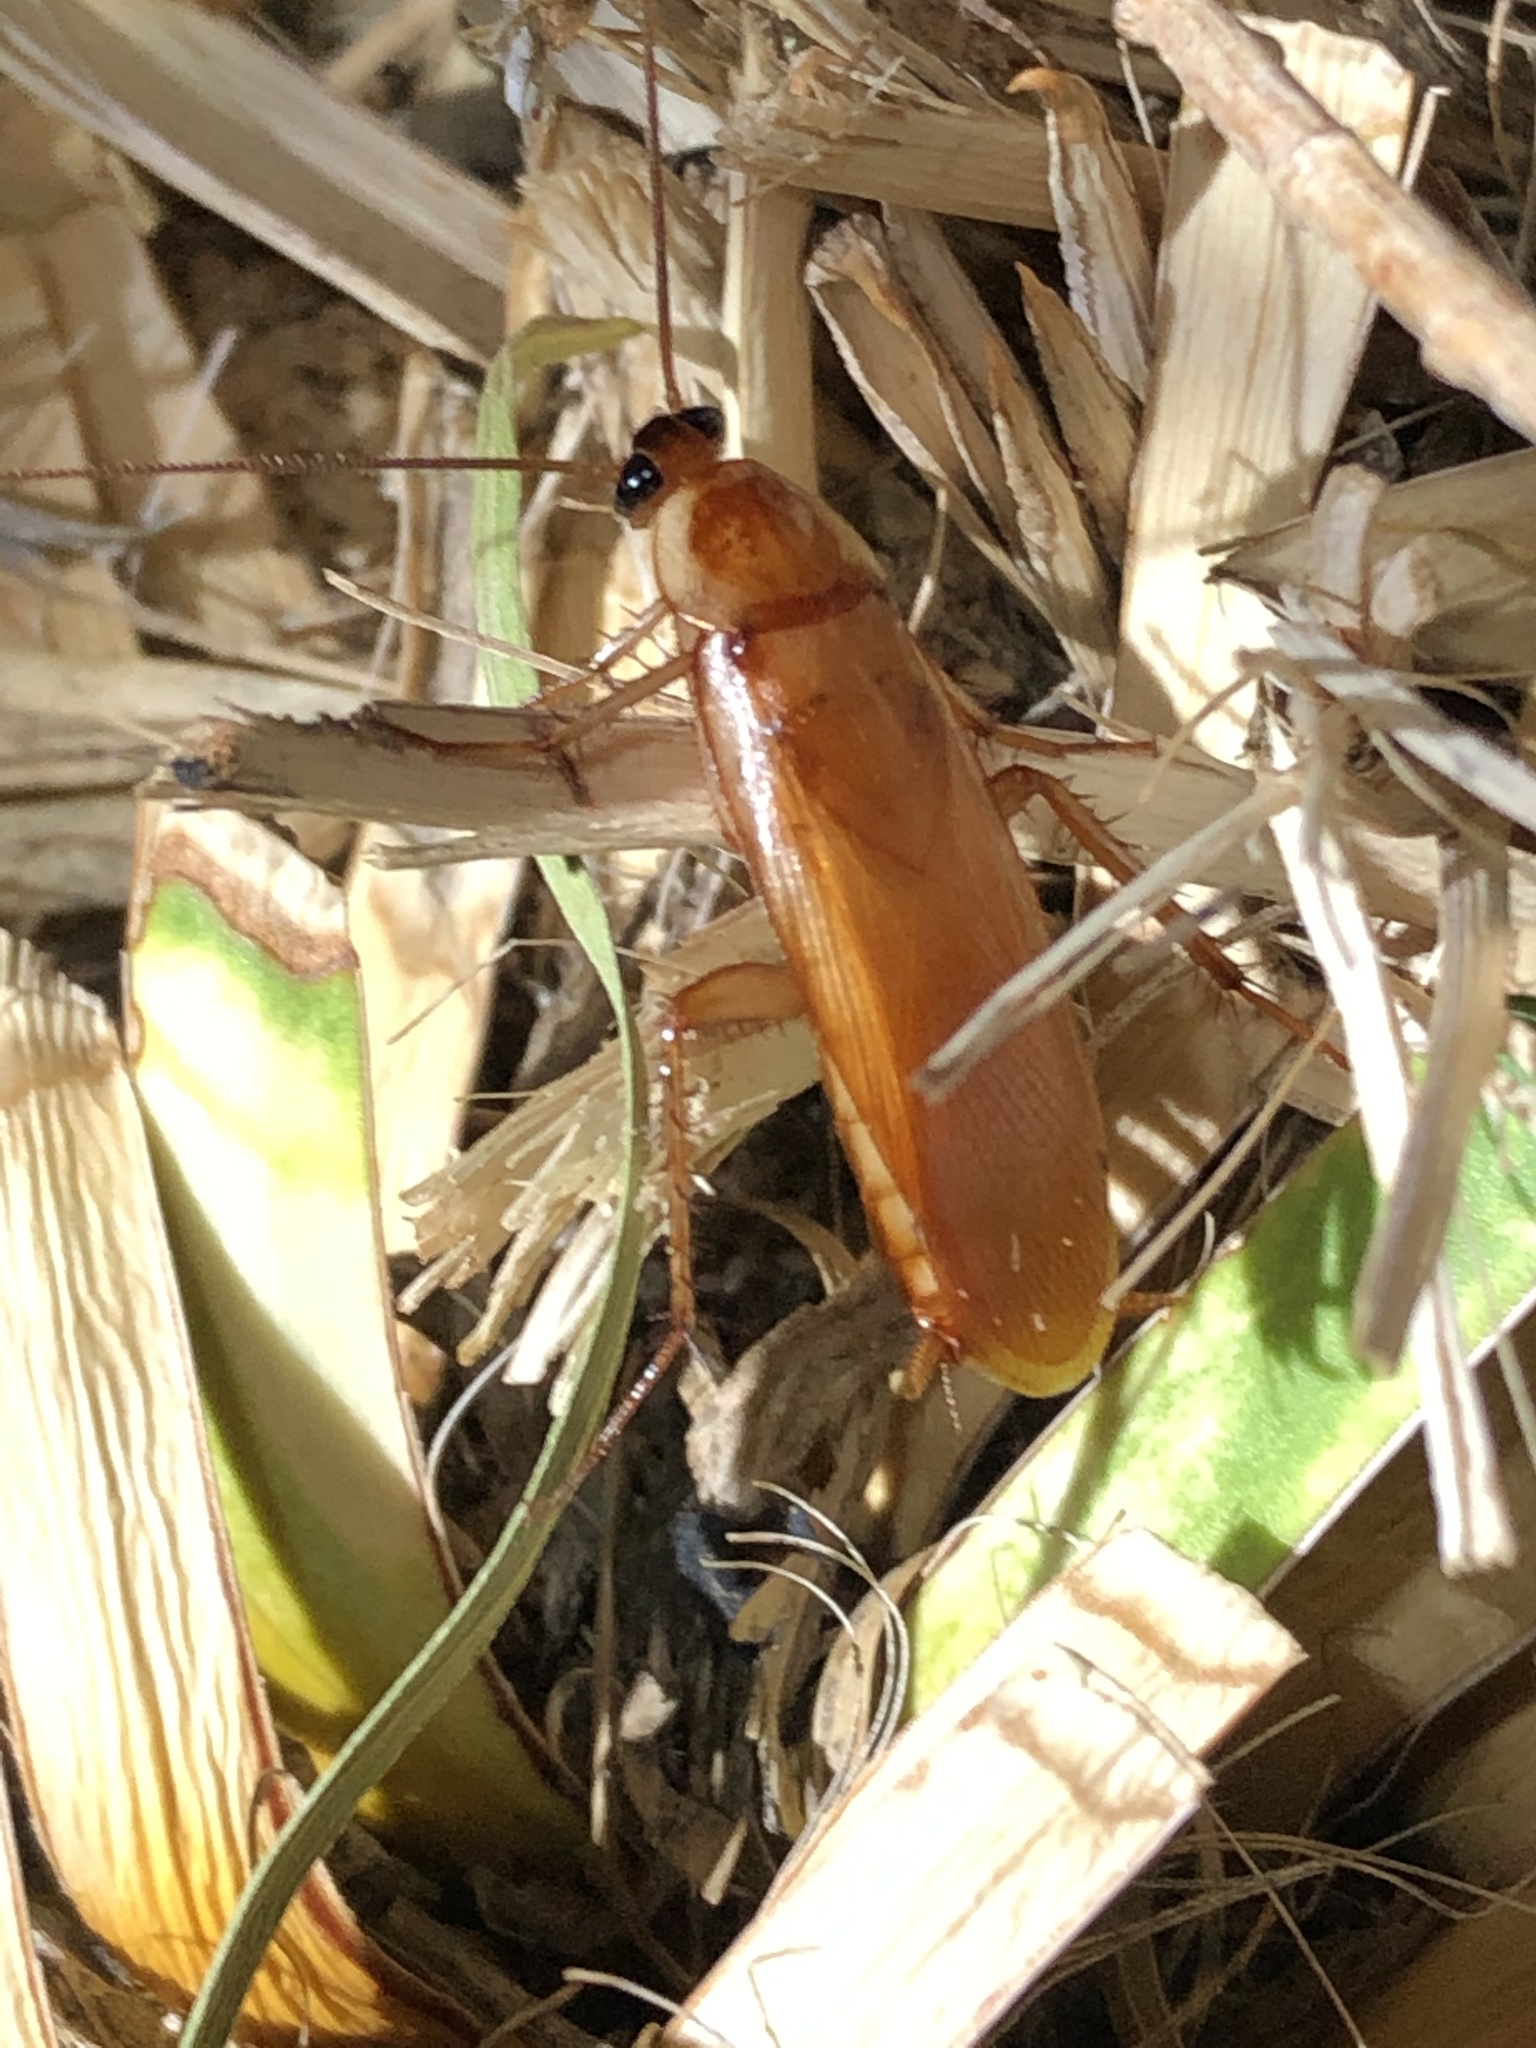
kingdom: Animalia
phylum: Arthropoda
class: Insecta
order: Blattodea
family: Blattidae
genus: Periplaneta
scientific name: Periplaneta lateralis
